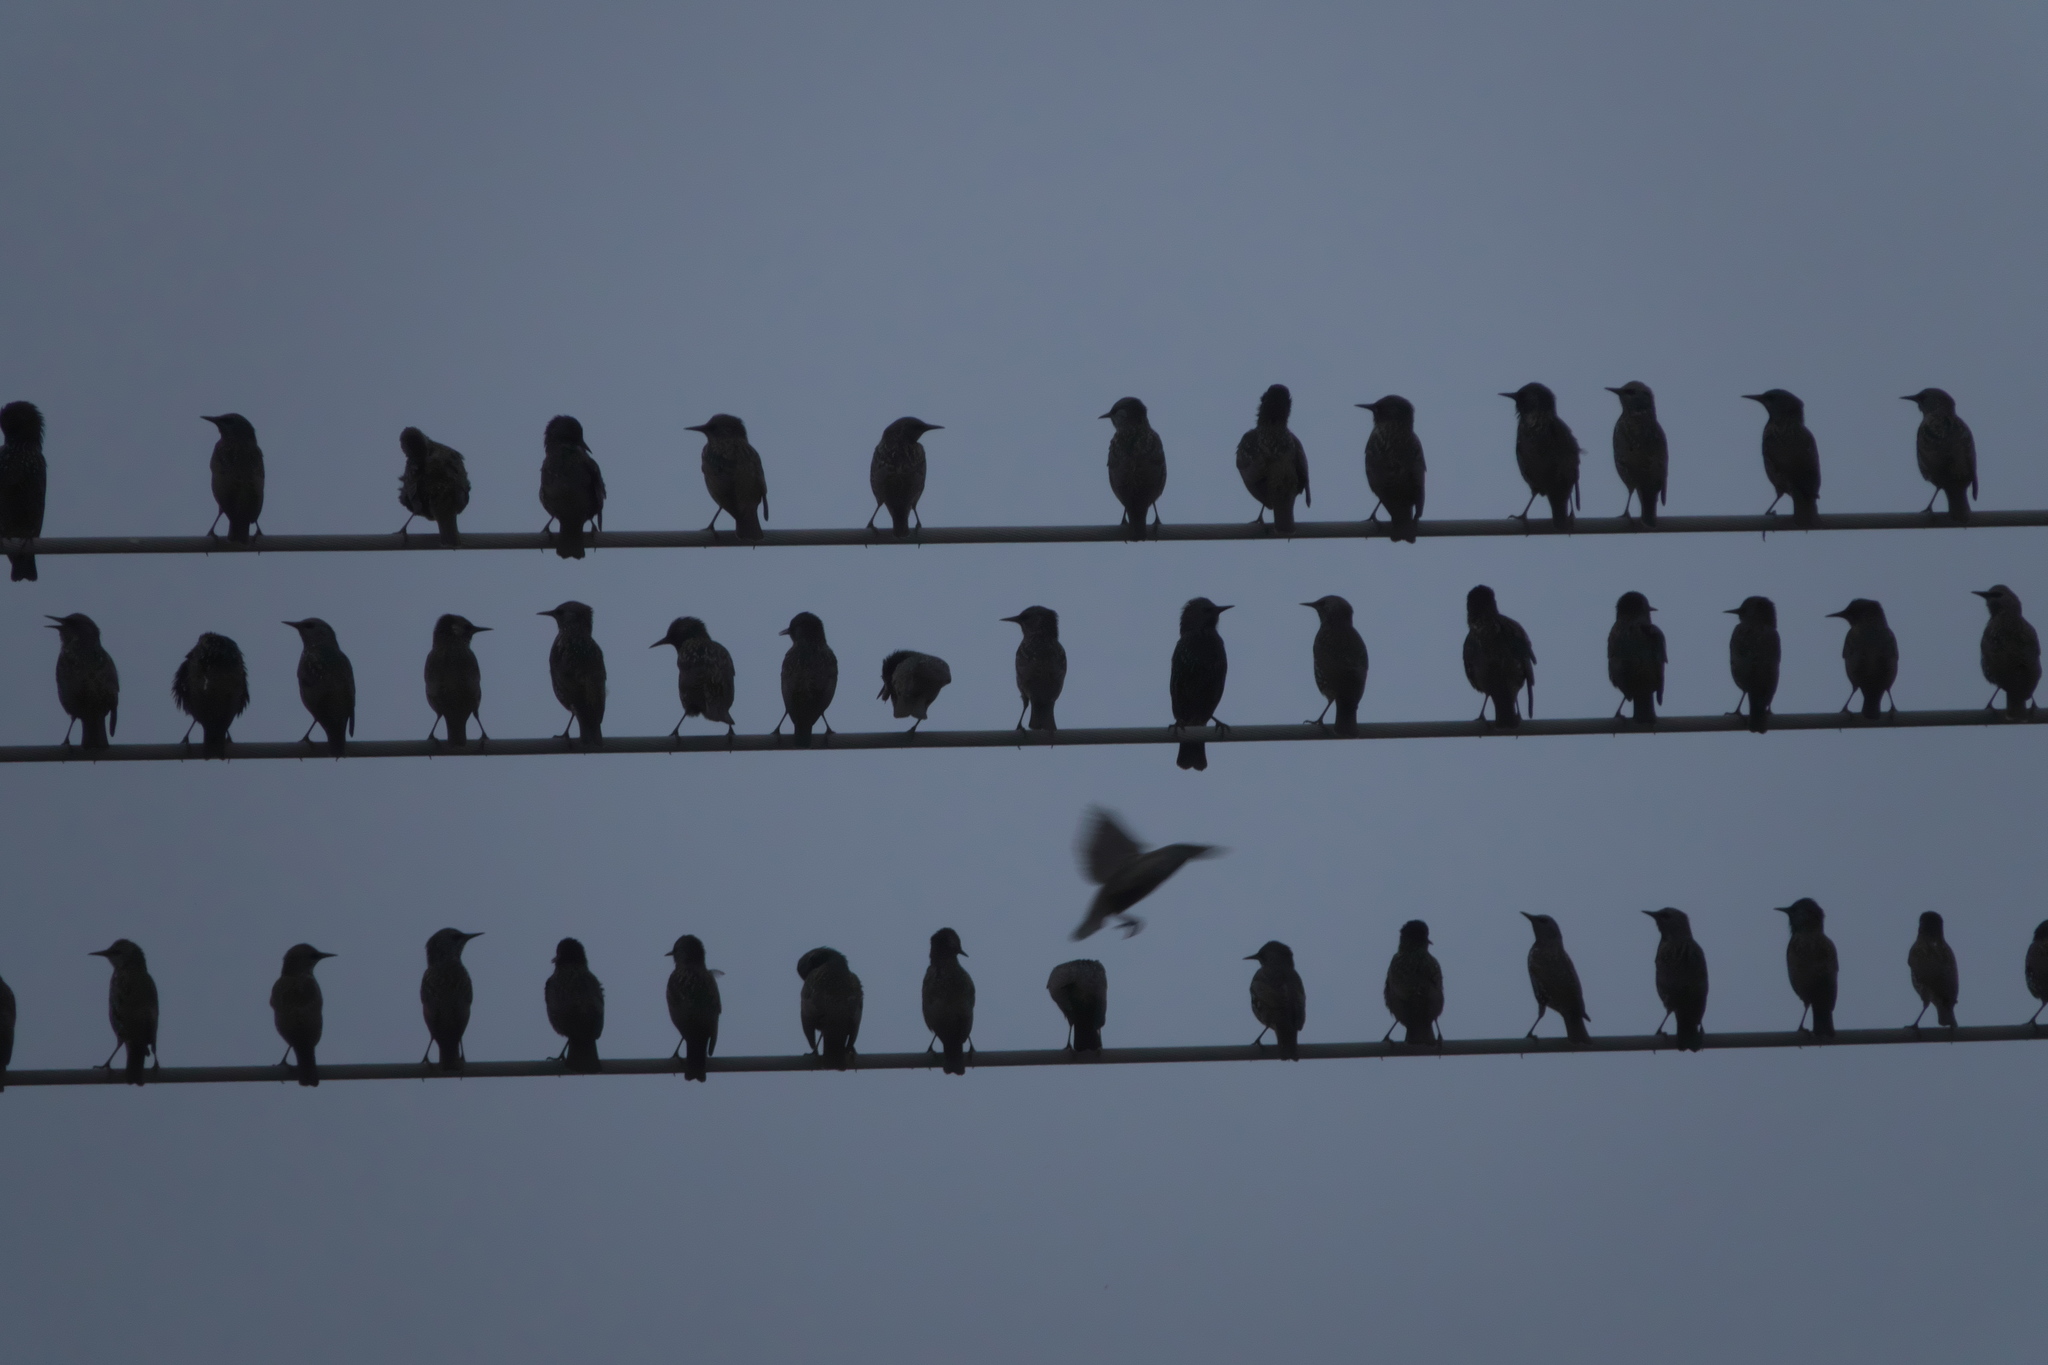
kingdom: Animalia
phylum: Chordata
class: Aves
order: Passeriformes
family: Sturnidae
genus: Sturnus
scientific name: Sturnus vulgaris
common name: Common starling
